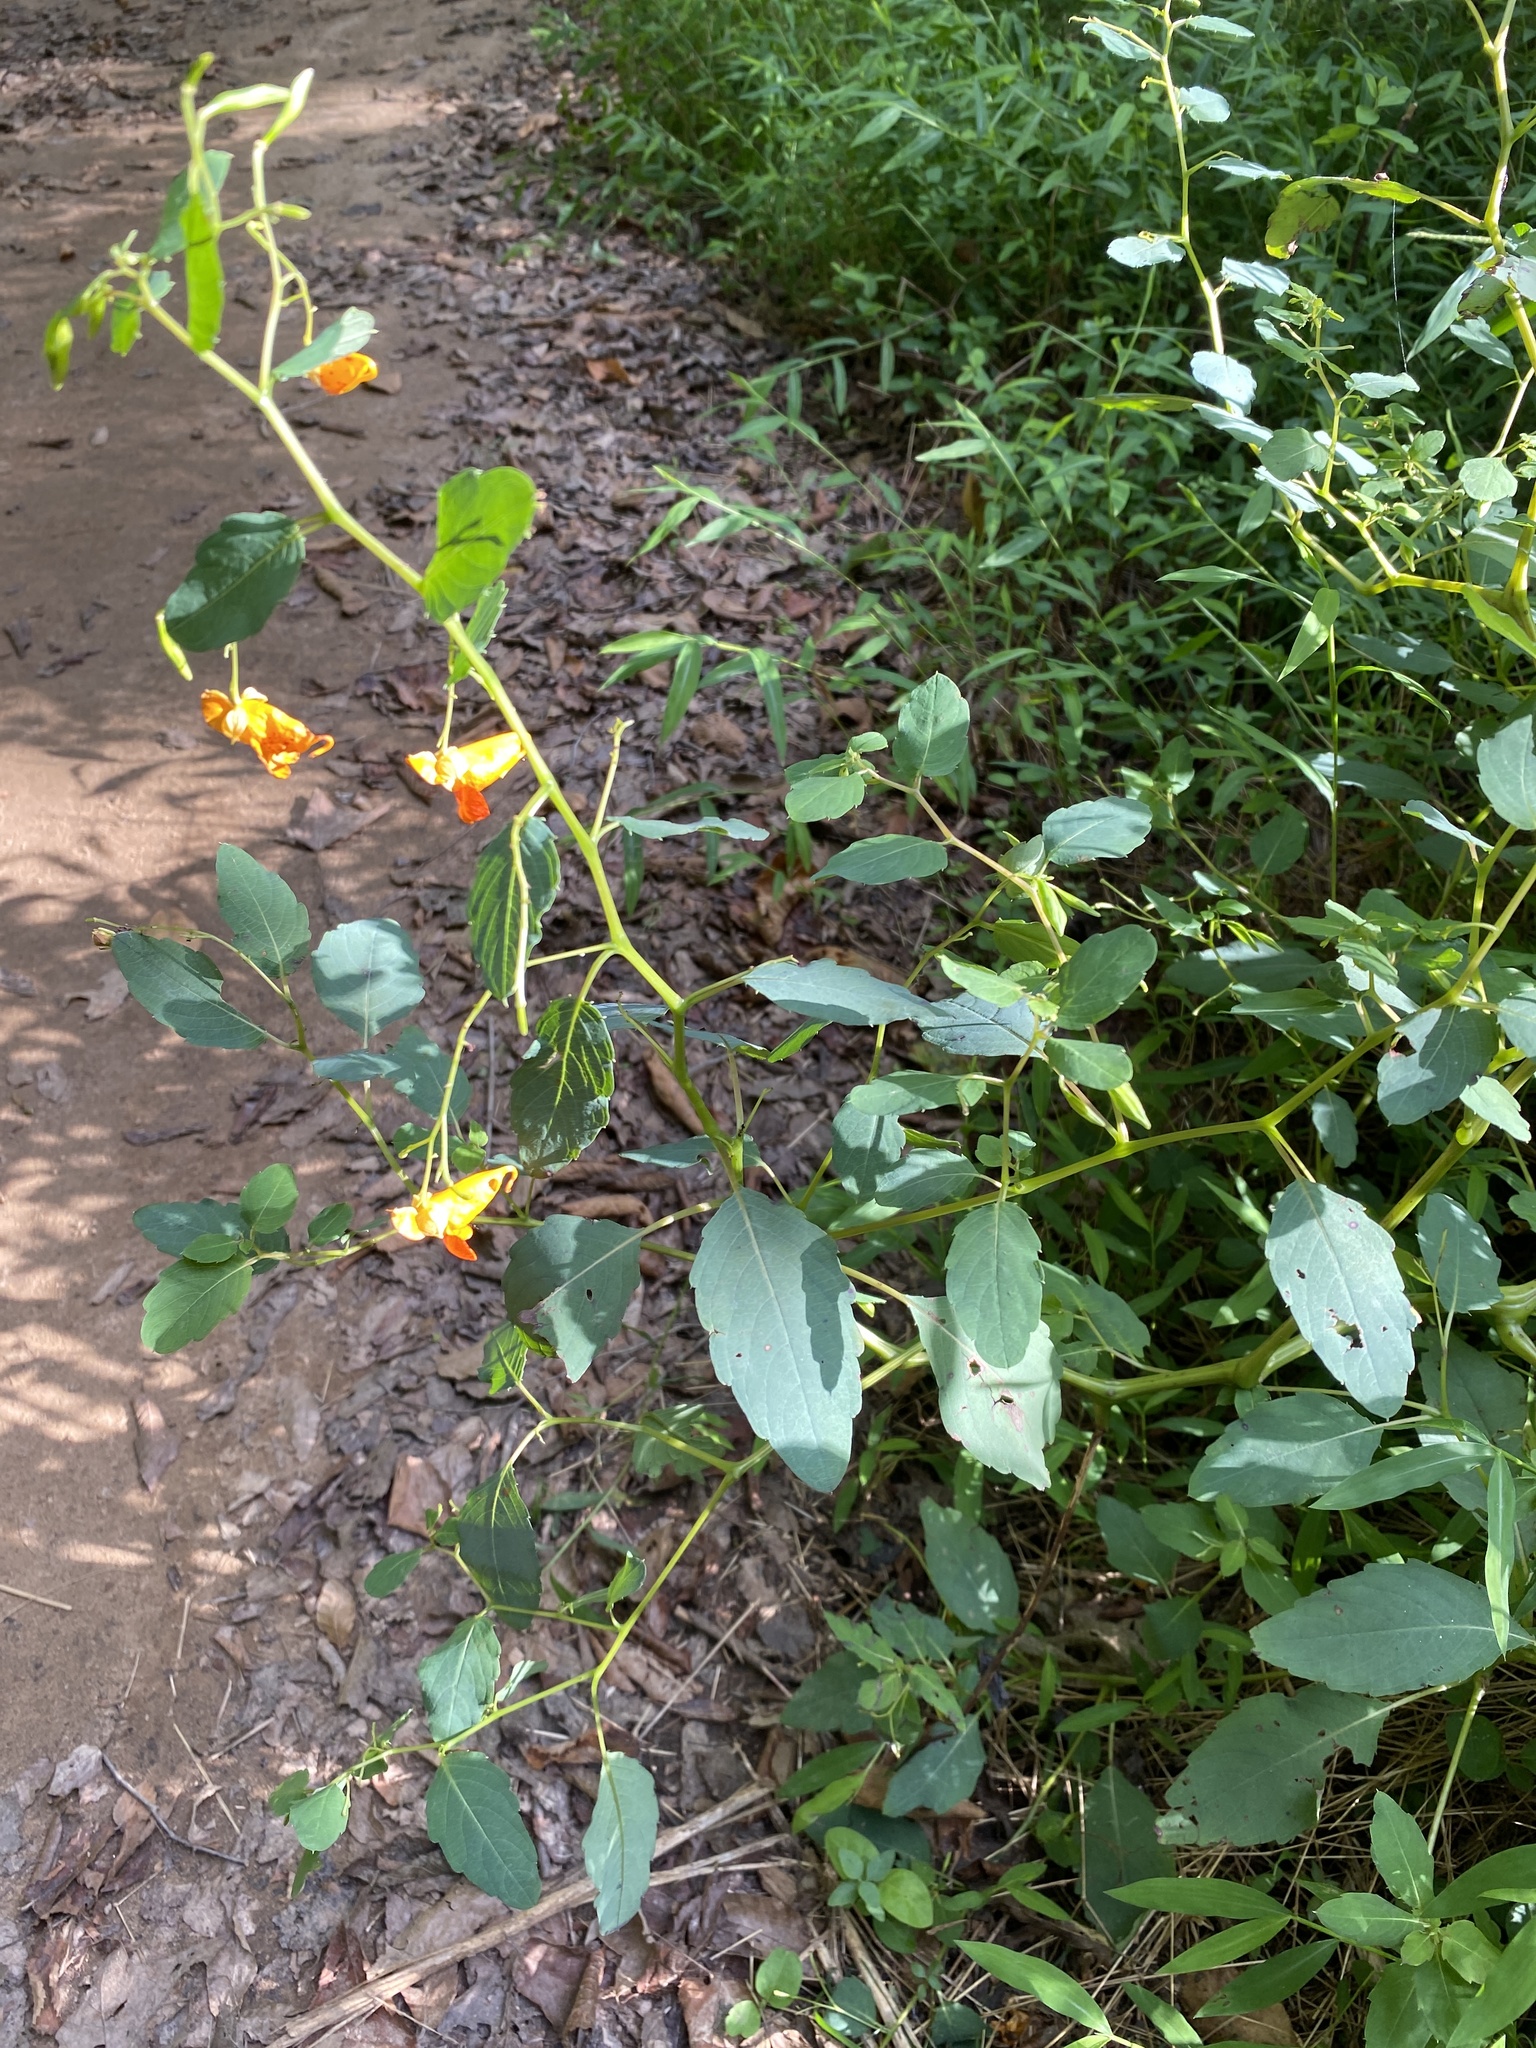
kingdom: Plantae
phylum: Tracheophyta
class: Magnoliopsida
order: Ericales
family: Balsaminaceae
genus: Impatiens
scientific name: Impatiens capensis
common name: Orange balsam
